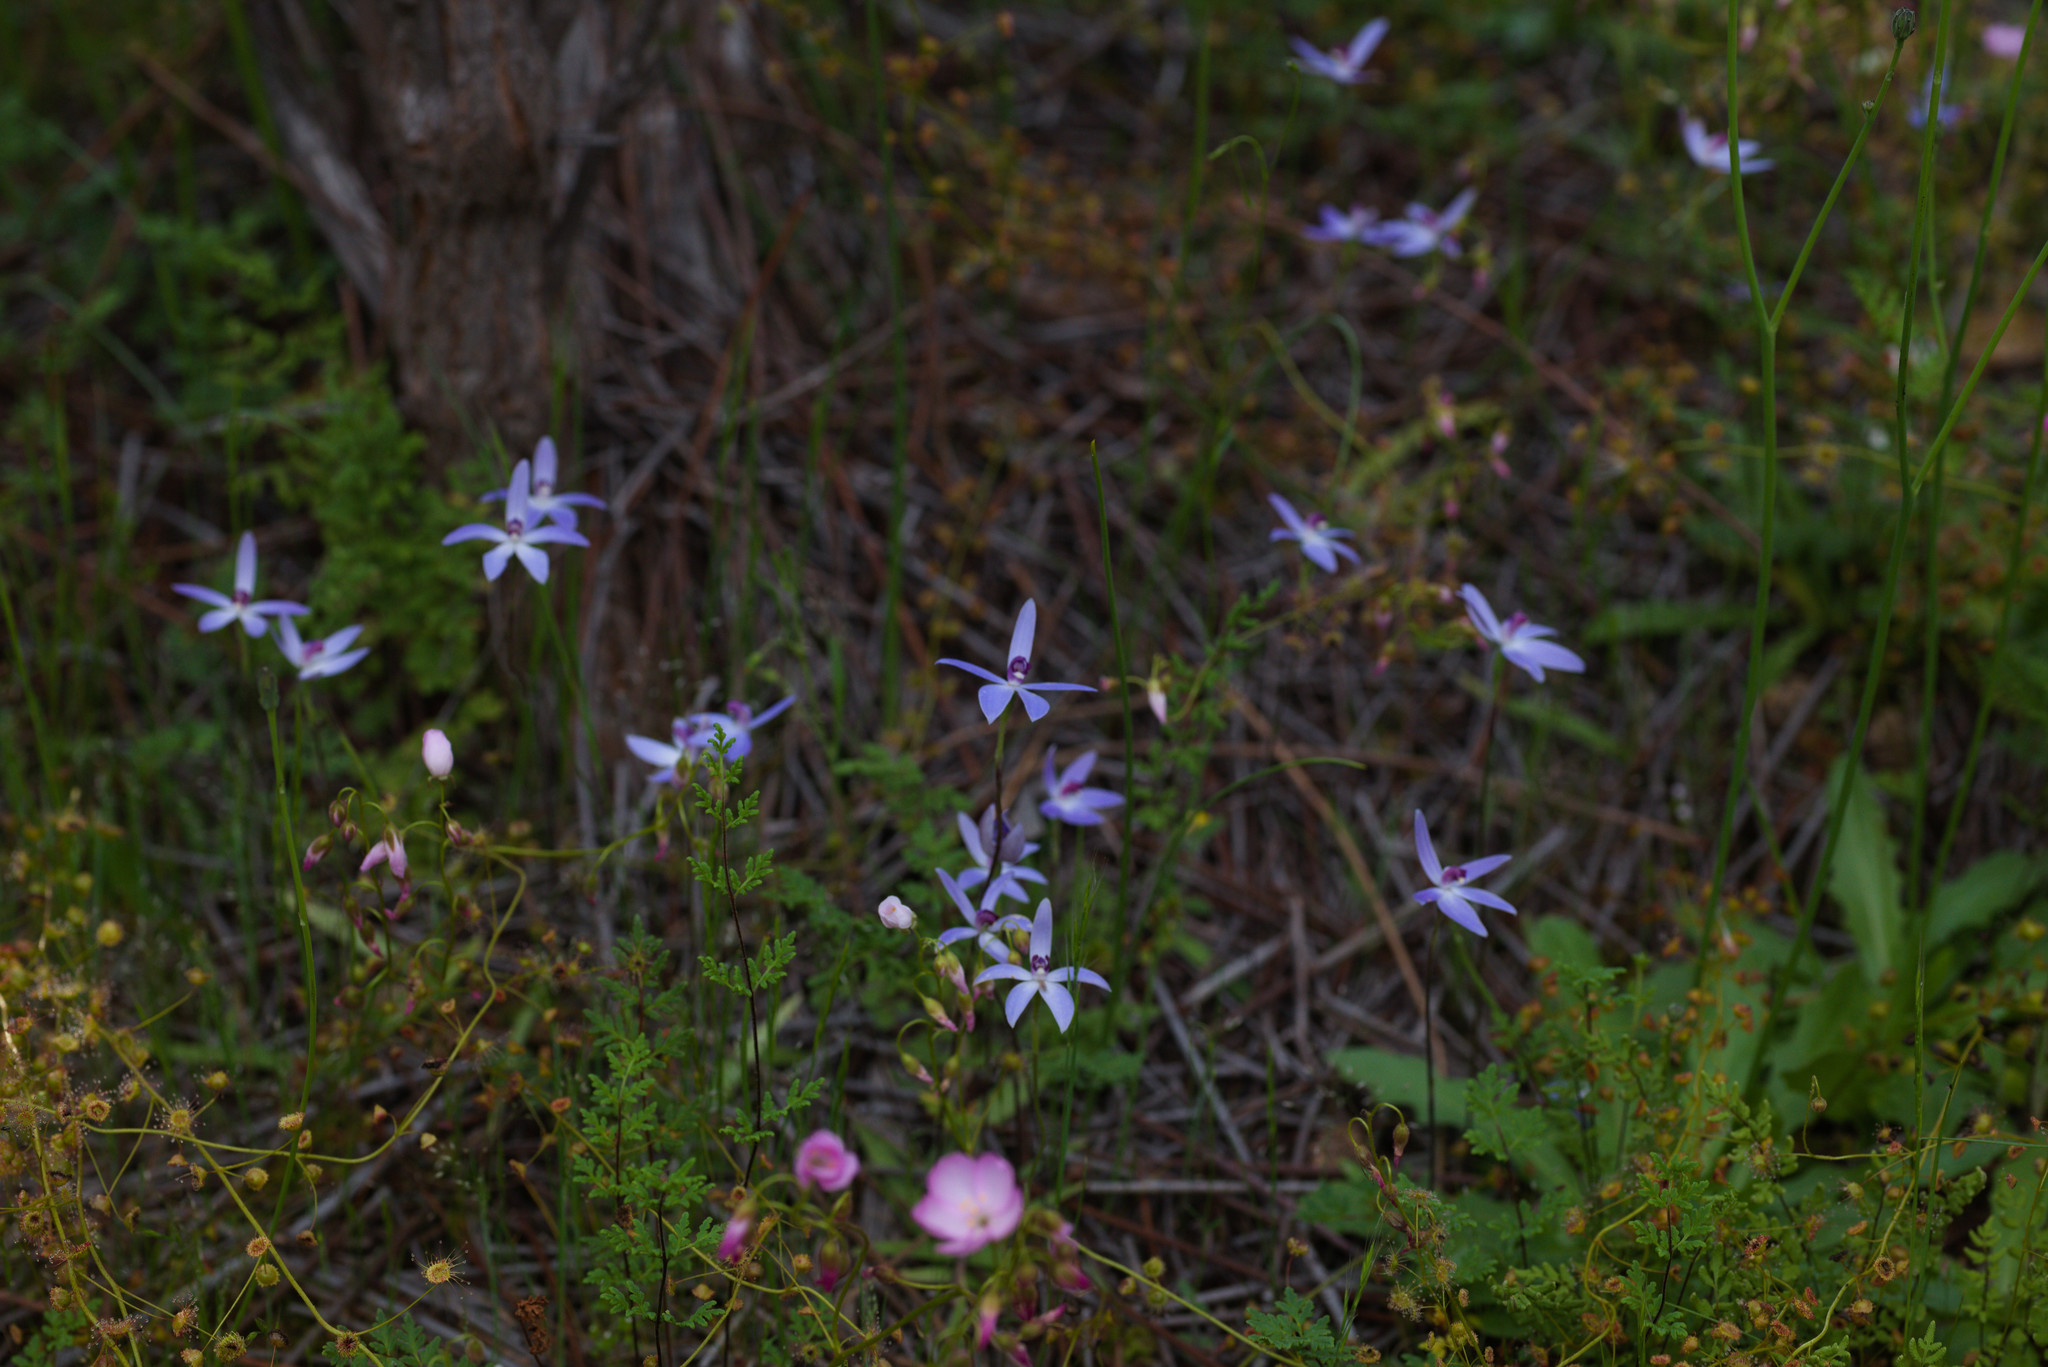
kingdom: Plantae
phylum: Tracheophyta
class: Liliopsida
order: Asparagales
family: Orchidaceae
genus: Caladenia
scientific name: Caladenia amplexans
